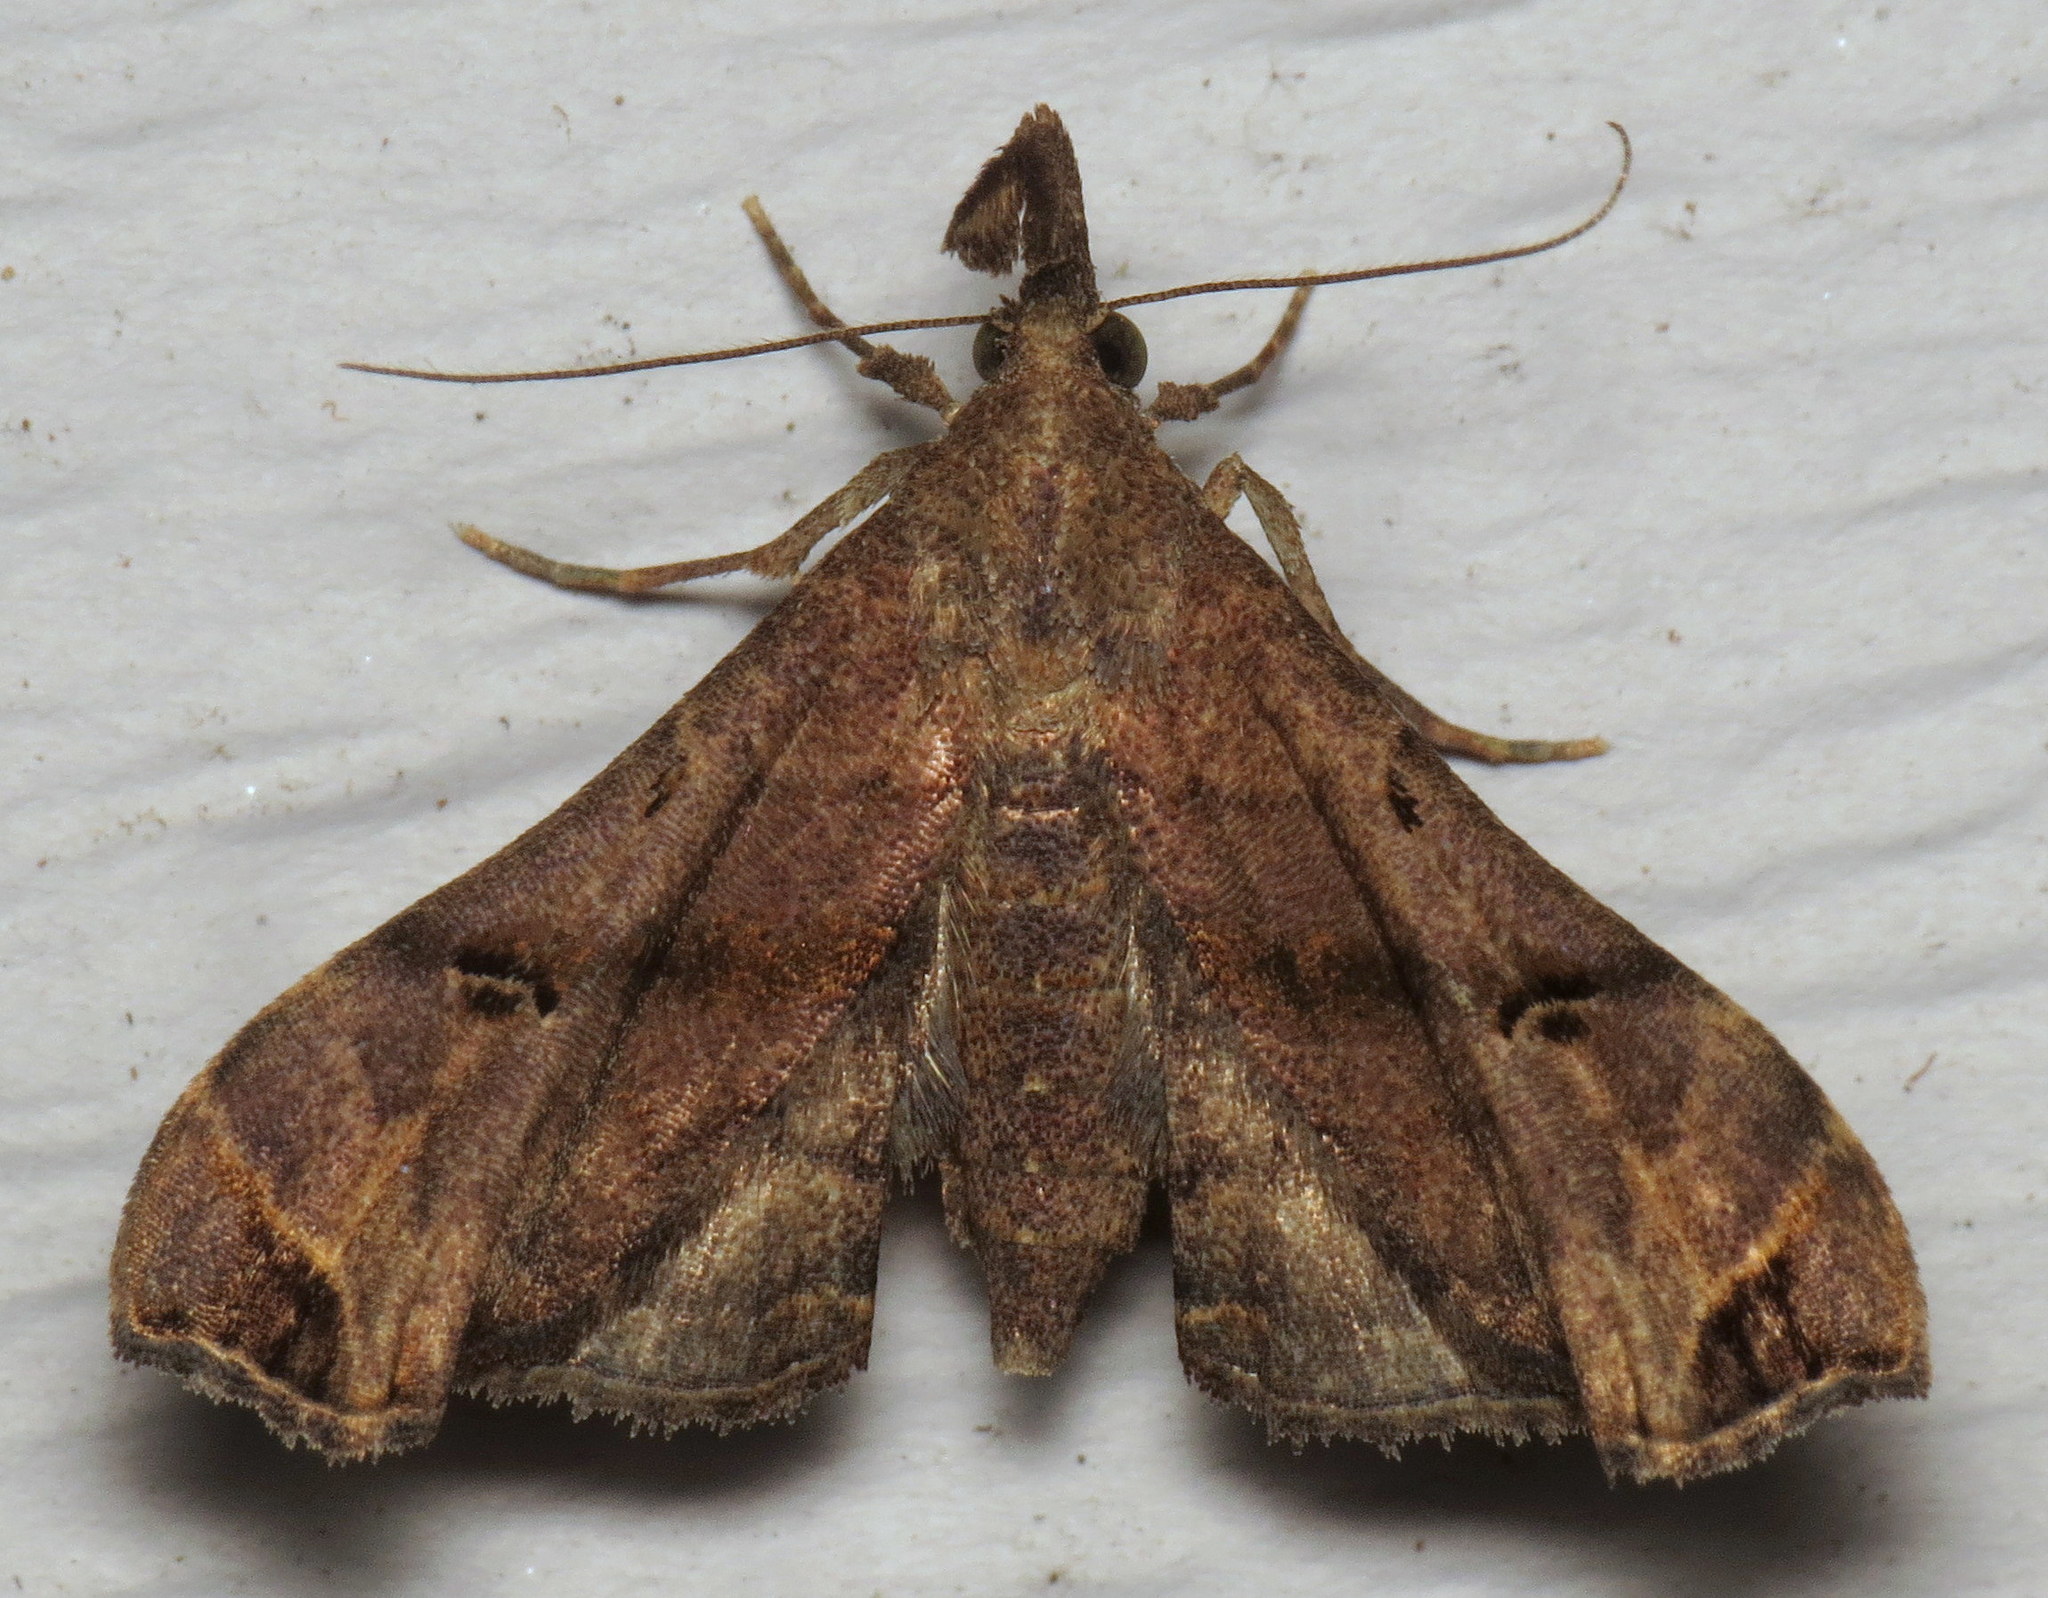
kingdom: Animalia
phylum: Arthropoda
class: Insecta
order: Lepidoptera
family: Erebidae
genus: Palthis
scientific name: Palthis asopialis
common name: Faint-spotted palthis moth
